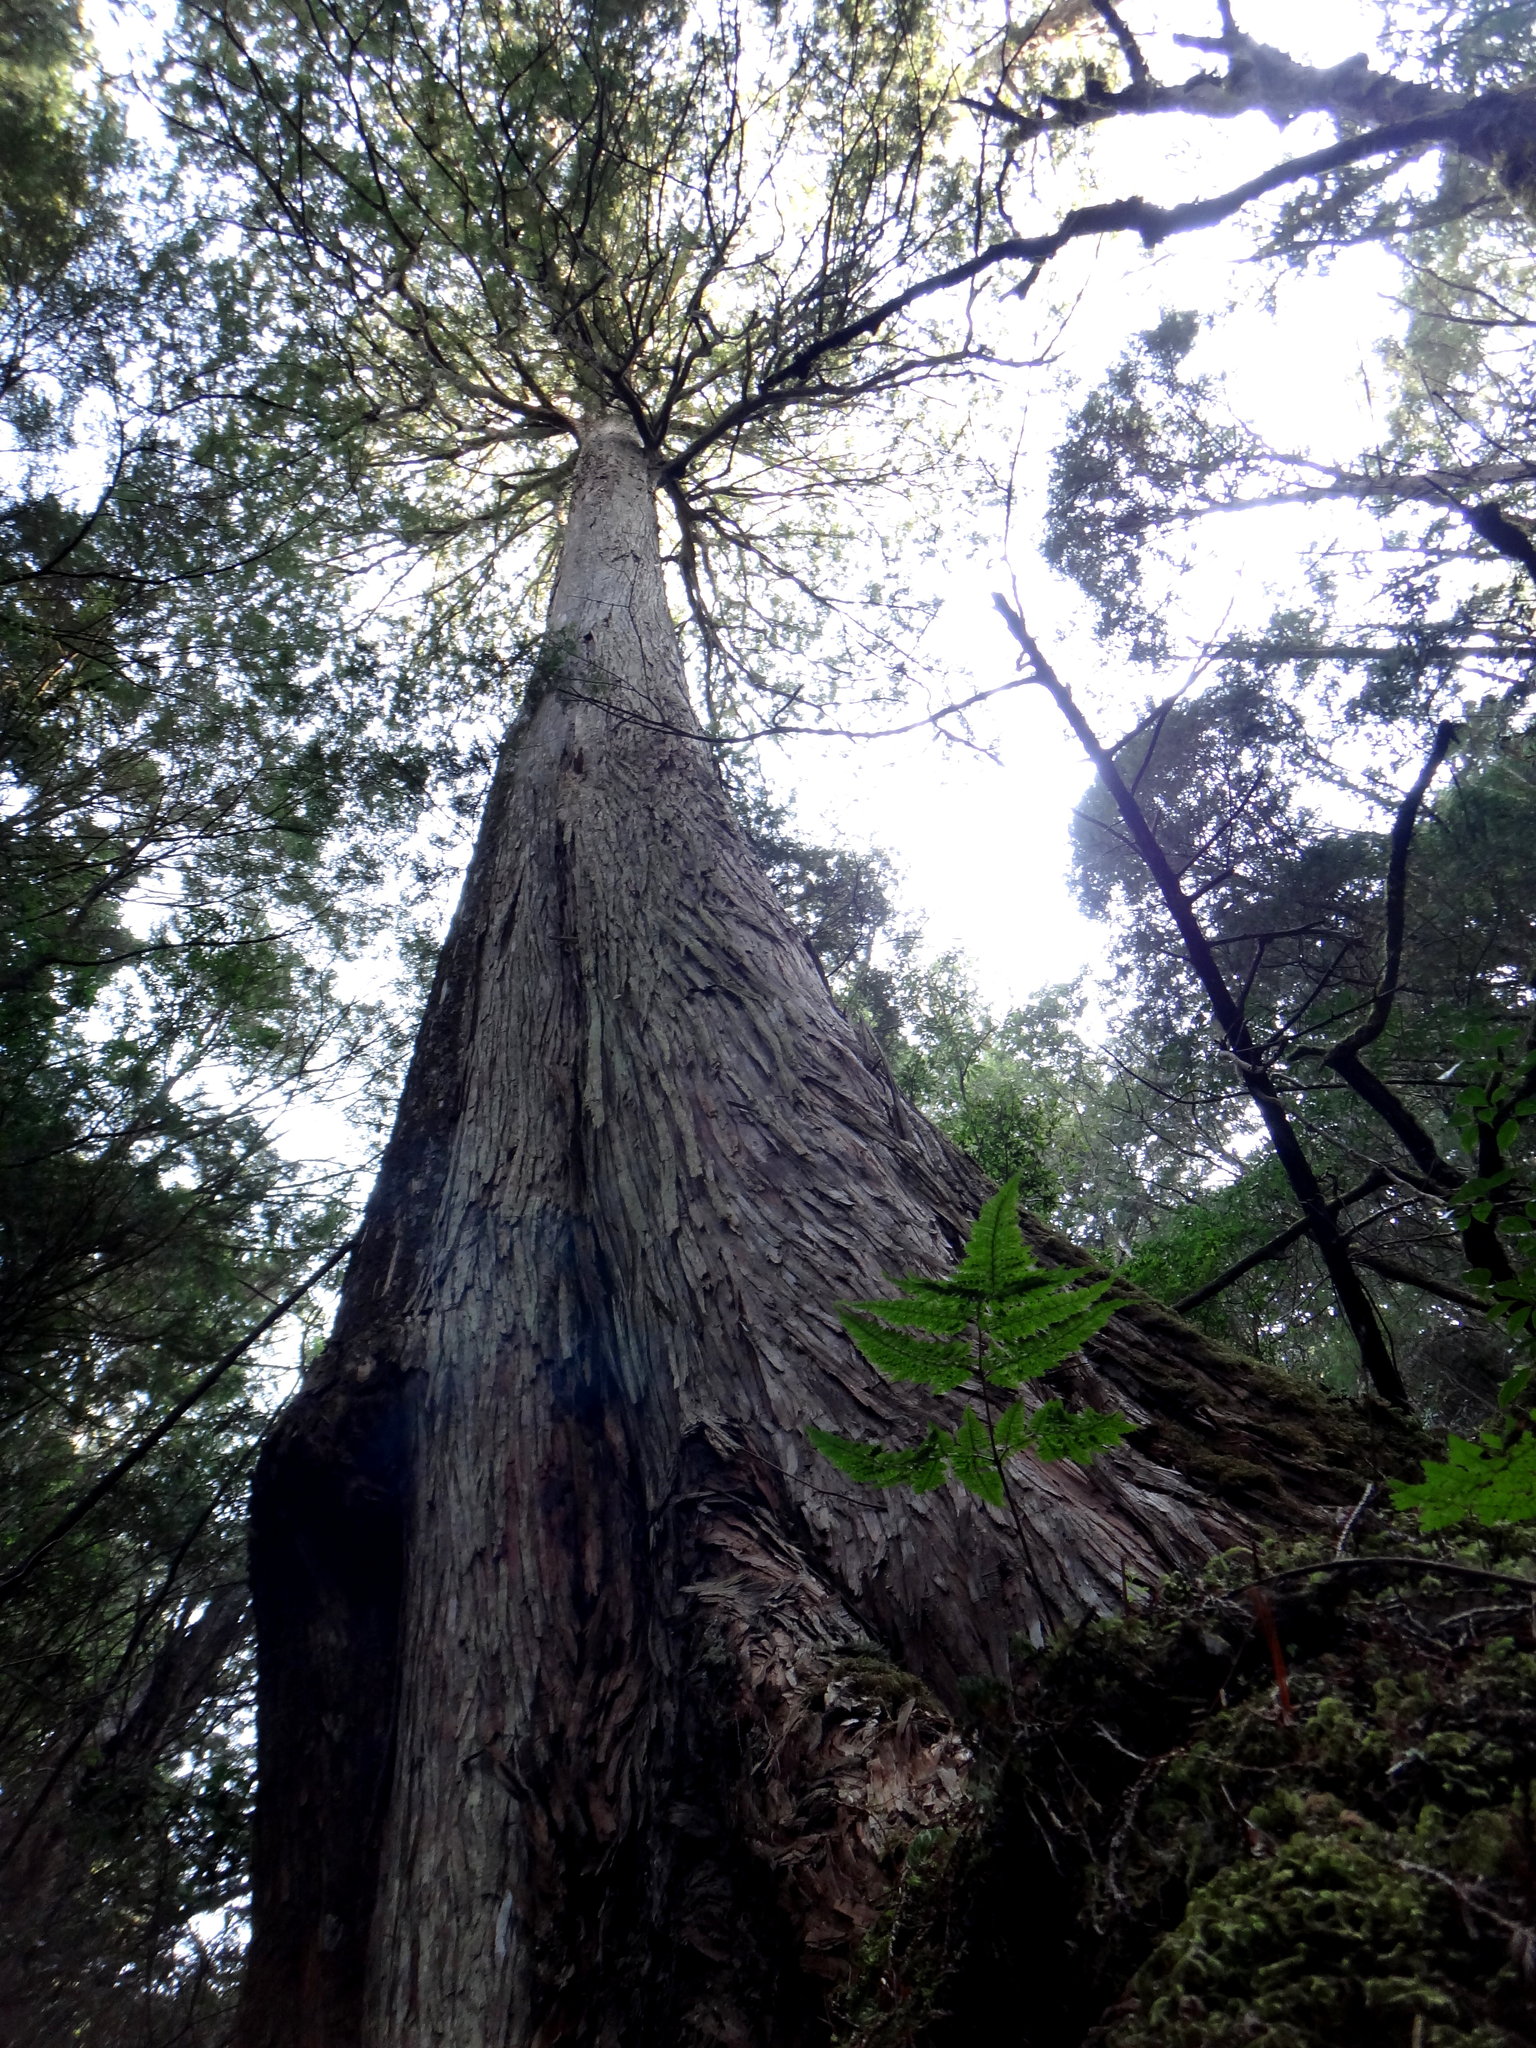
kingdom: Plantae
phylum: Tracheophyta
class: Pinopsida
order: Pinales
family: Cupressaceae
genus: Chamaecyparis
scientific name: Chamaecyparis obtusa
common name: Hinoki false cypress
